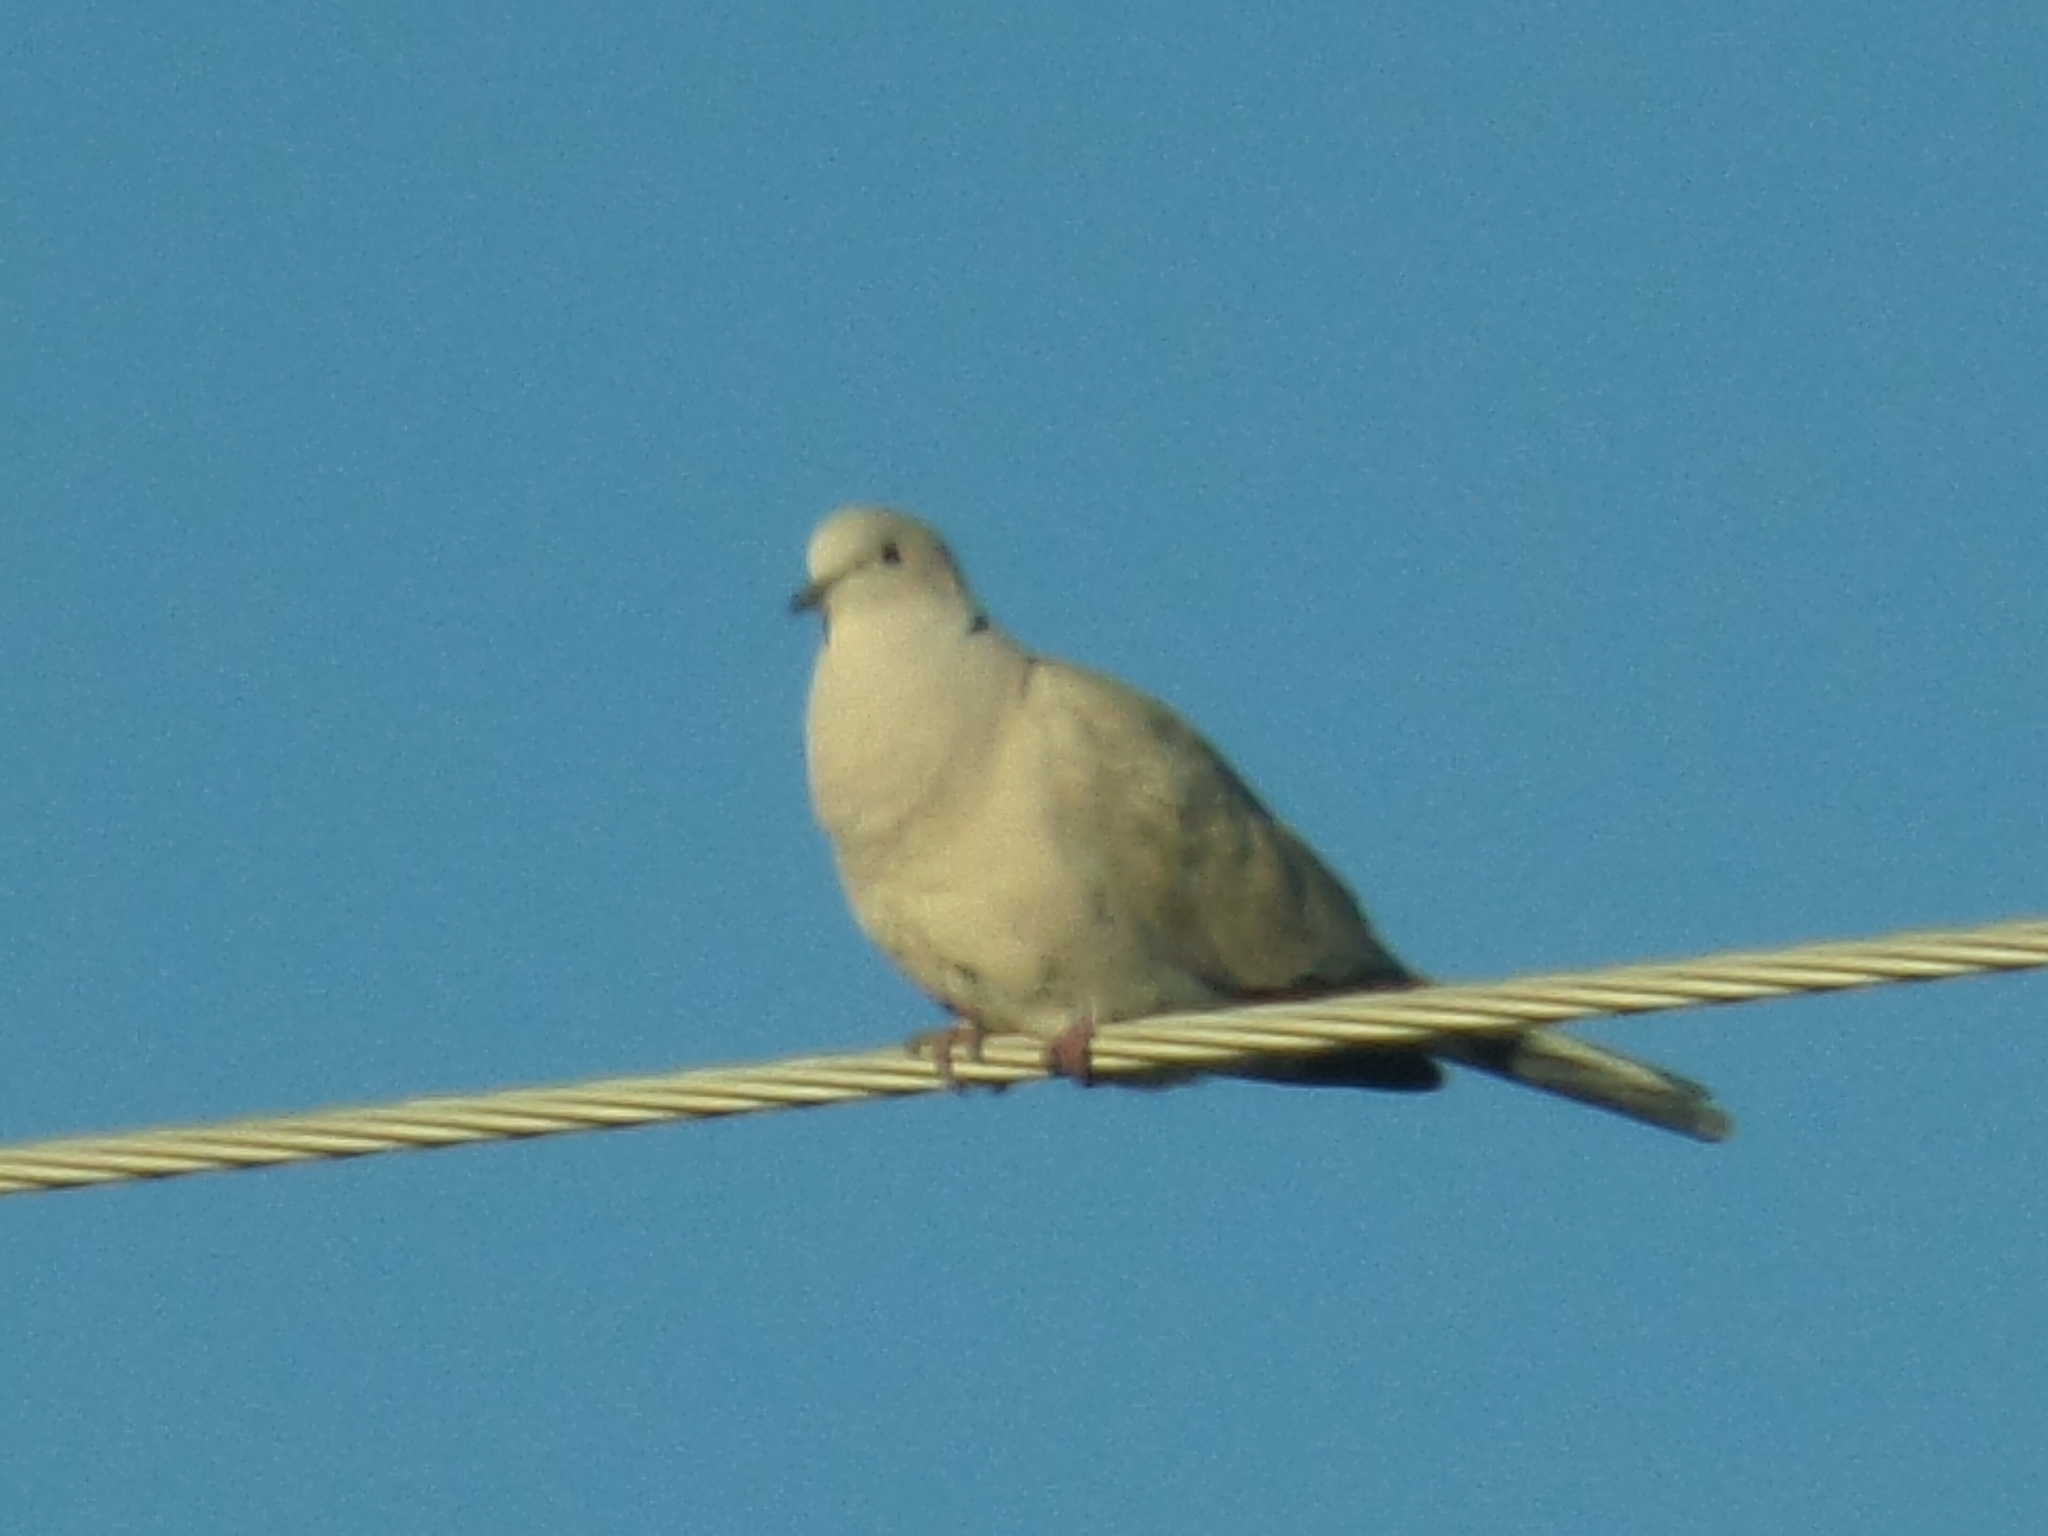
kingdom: Animalia
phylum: Chordata
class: Aves
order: Columbiformes
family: Columbidae
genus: Streptopelia
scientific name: Streptopelia decaocto
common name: Eurasian collared dove
